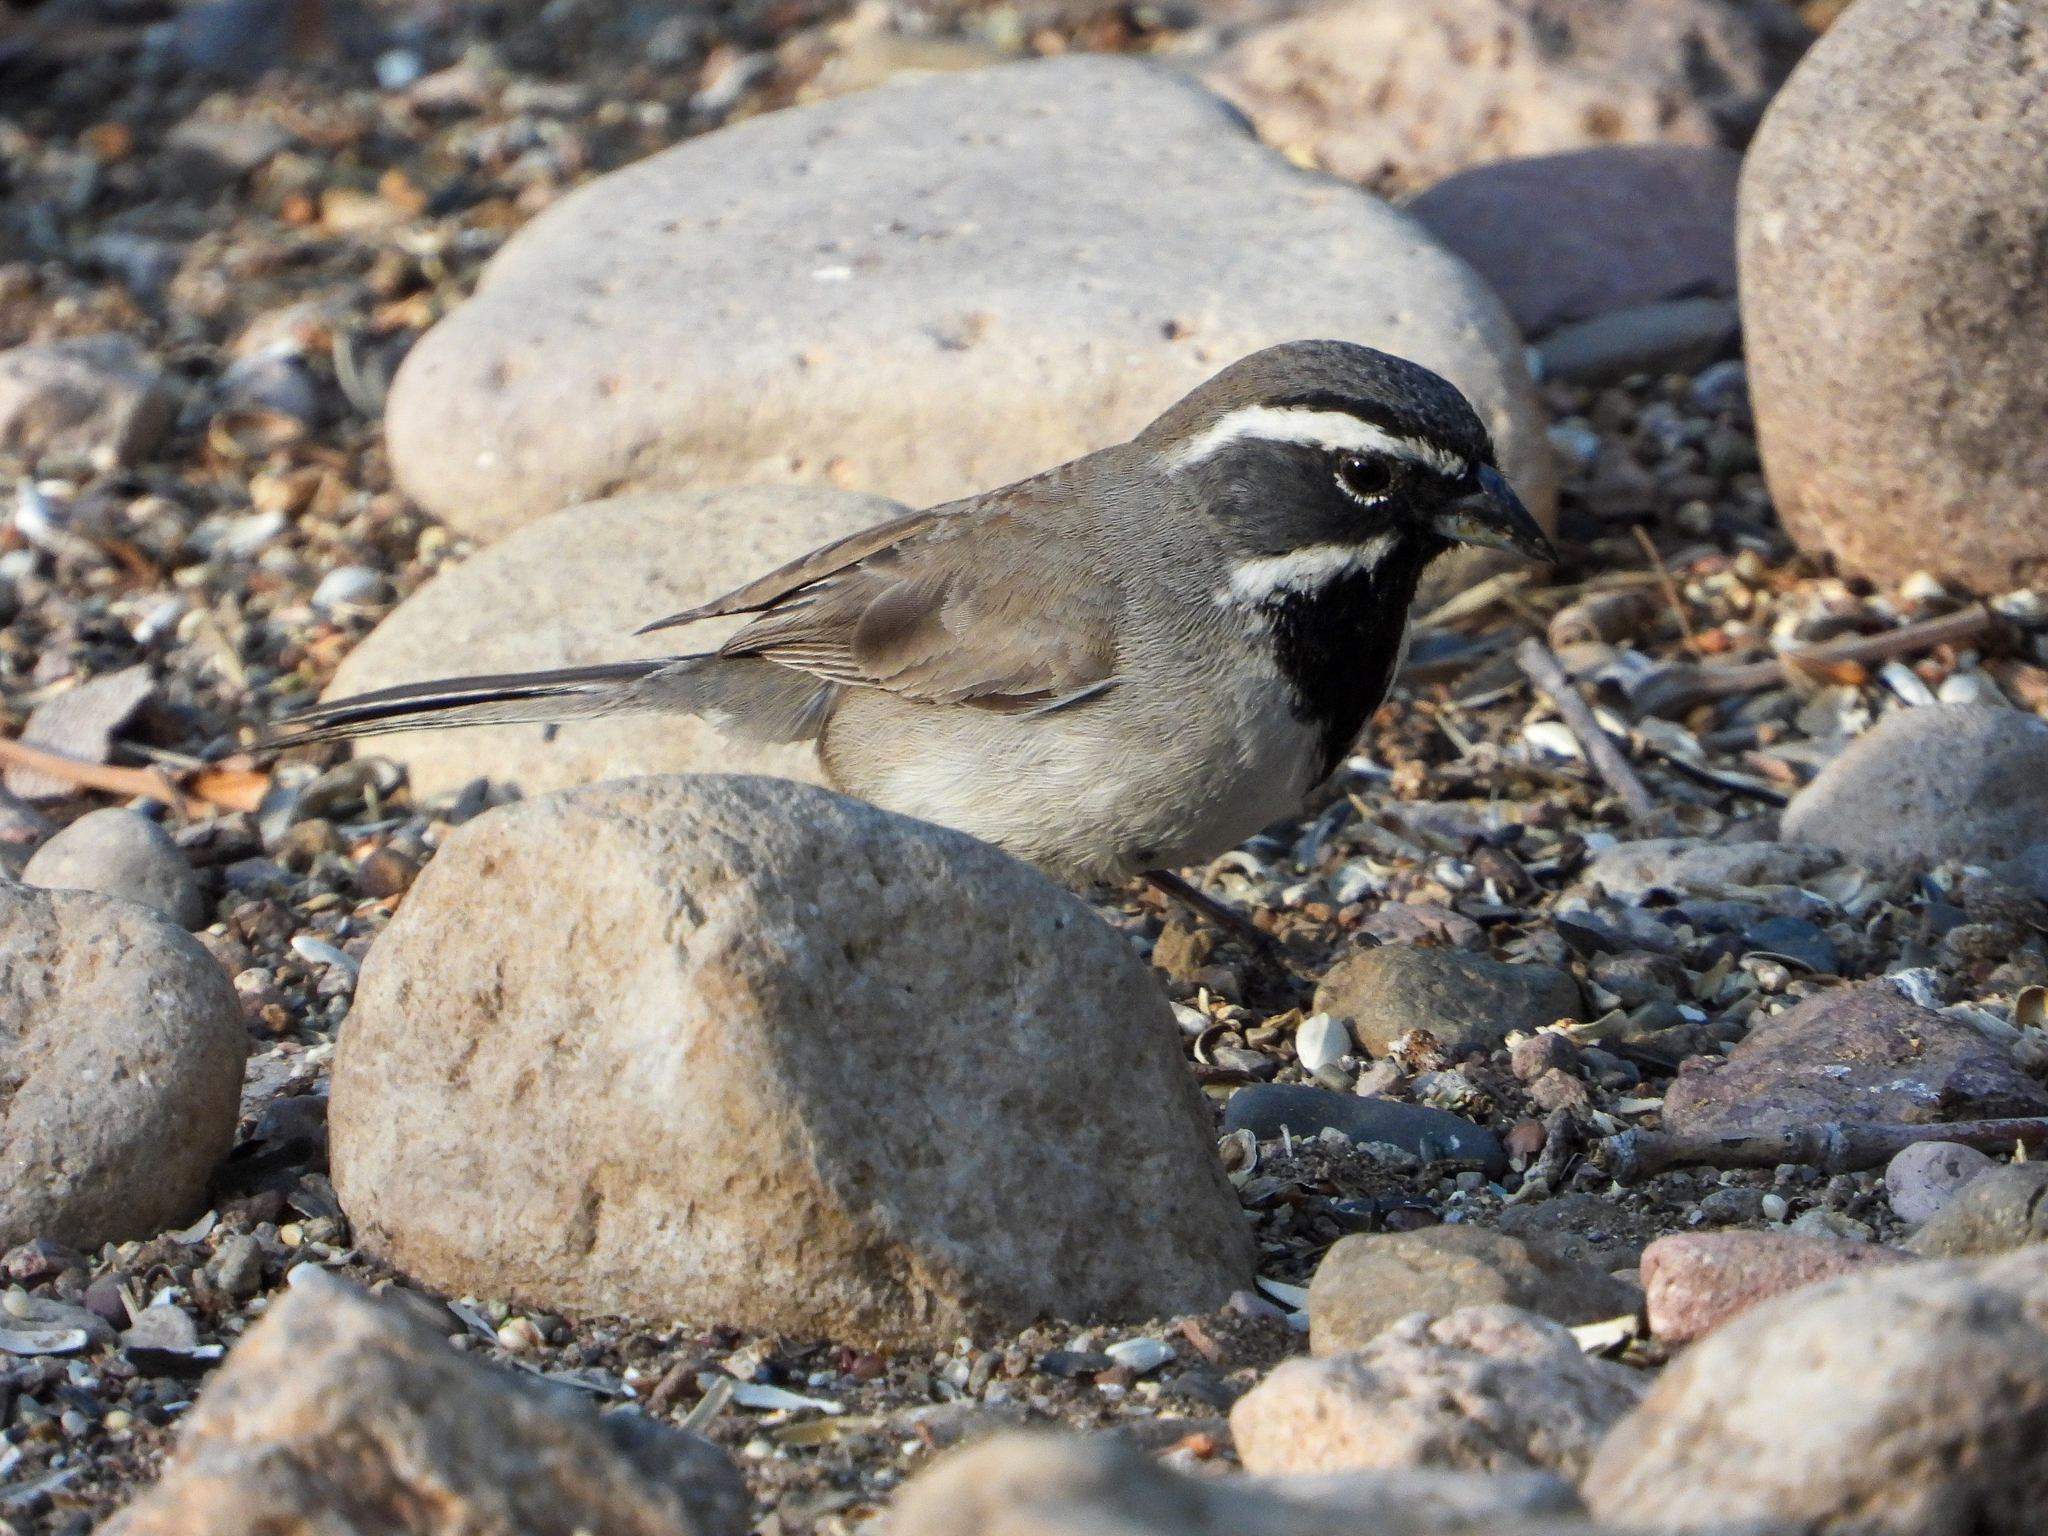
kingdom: Animalia
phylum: Chordata
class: Aves
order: Passeriformes
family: Passerellidae
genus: Amphispiza
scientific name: Amphispiza bilineata
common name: Black-throated sparrow
